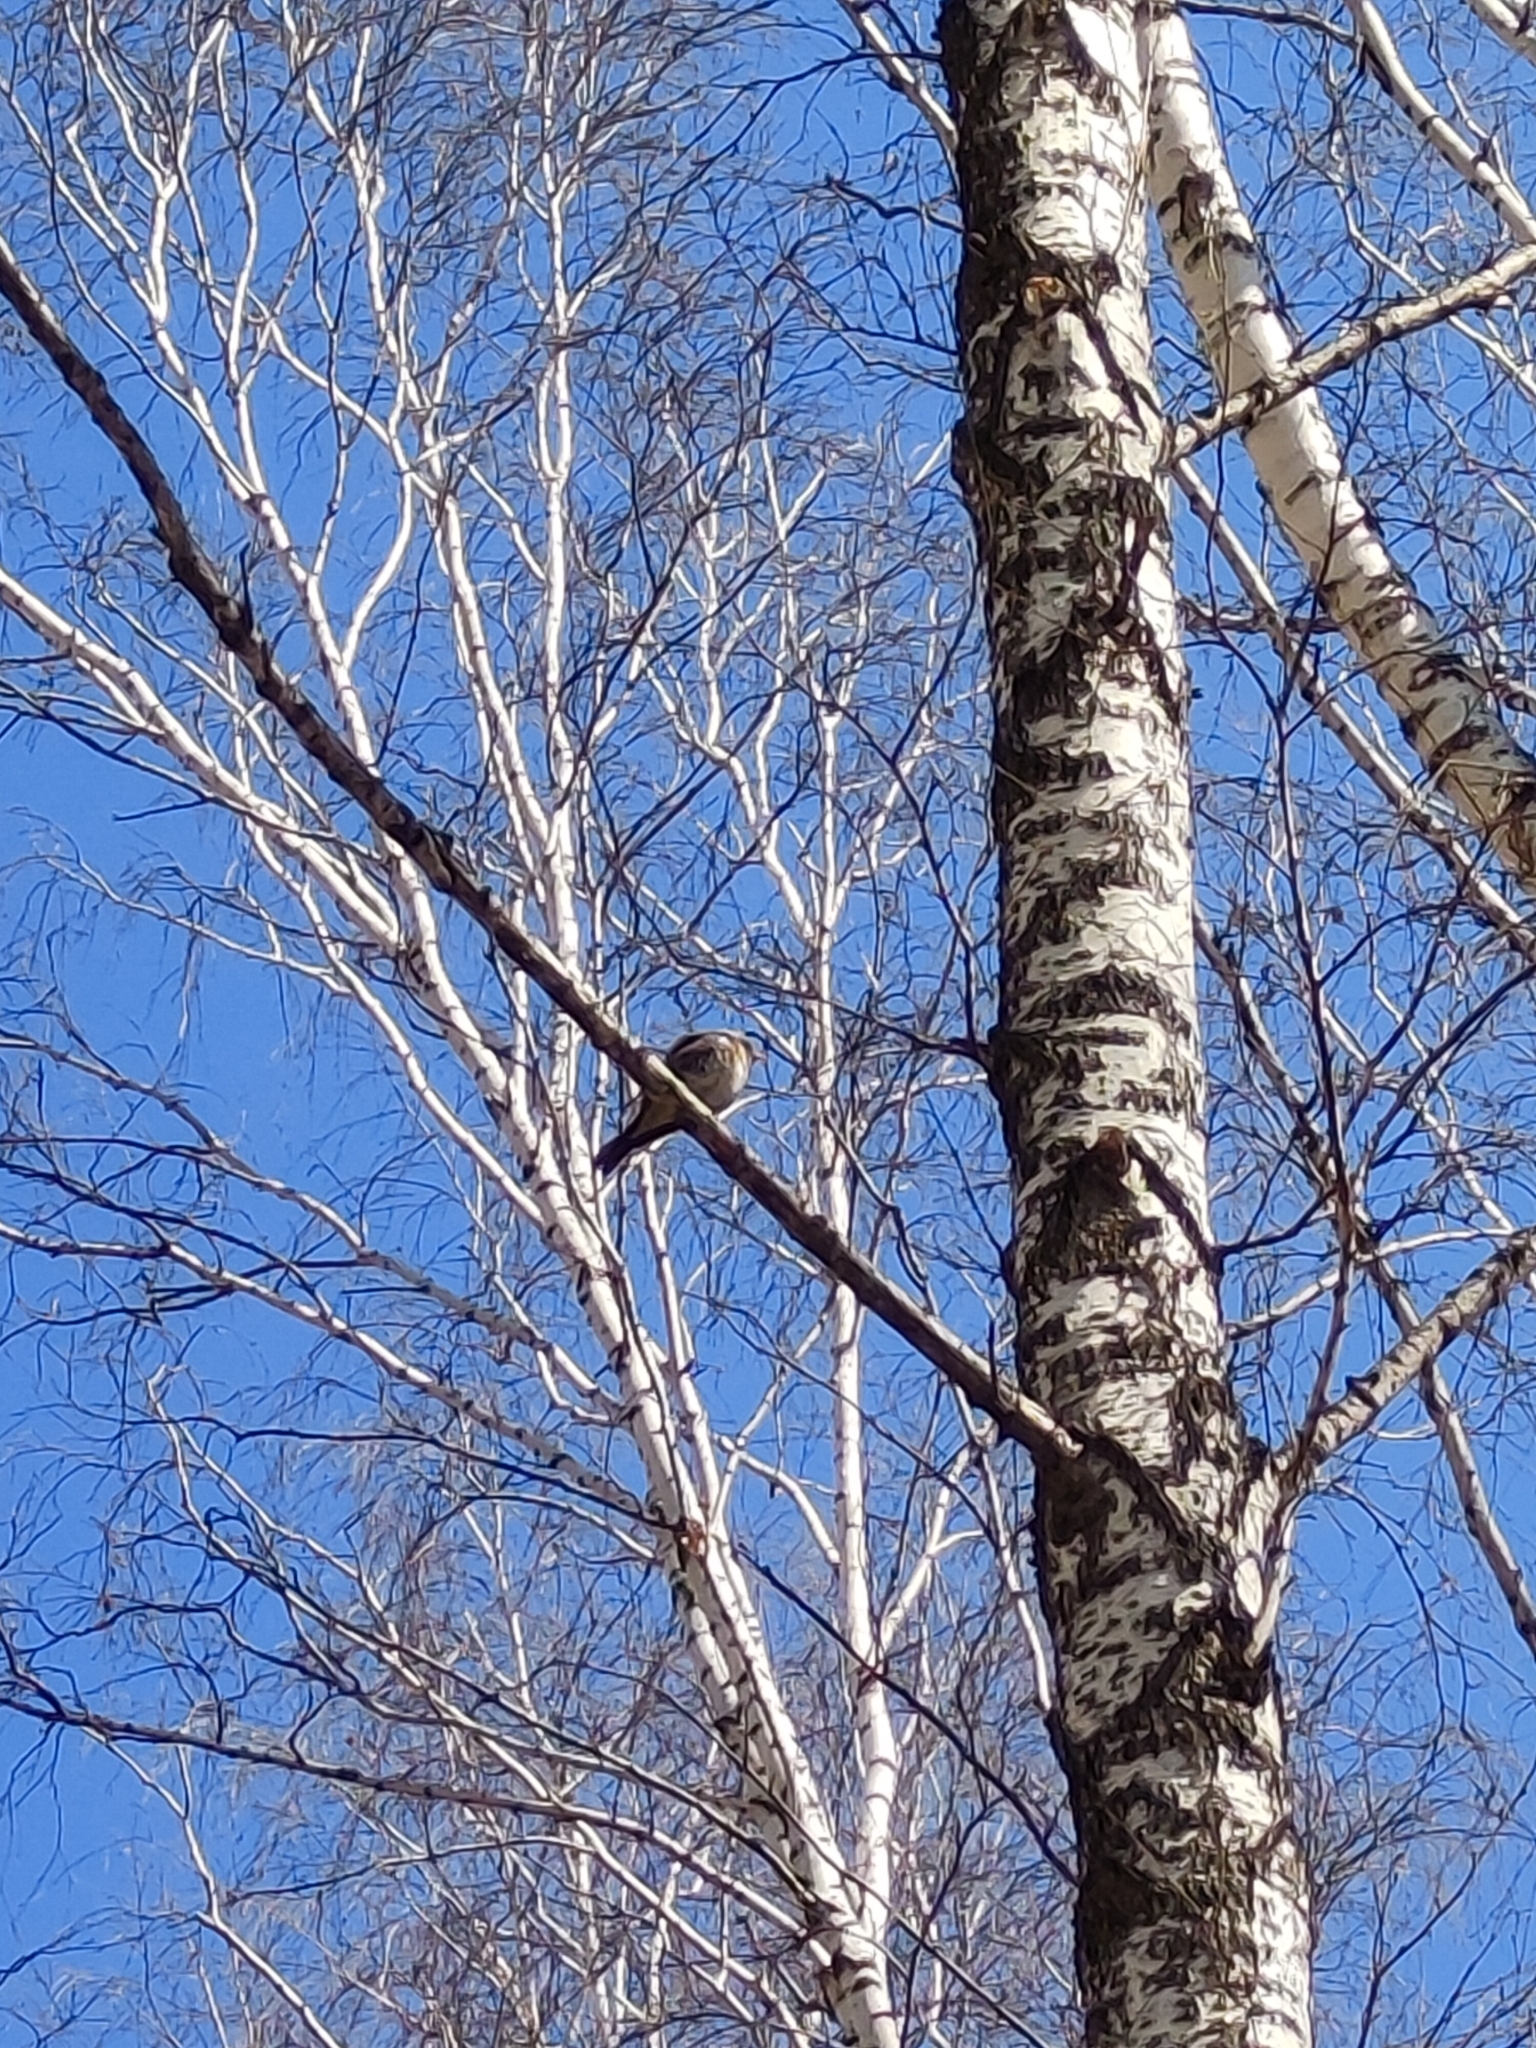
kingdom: Animalia
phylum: Chordata
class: Aves
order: Passeriformes
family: Turdidae
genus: Turdus
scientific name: Turdus pilaris
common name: Fieldfare
